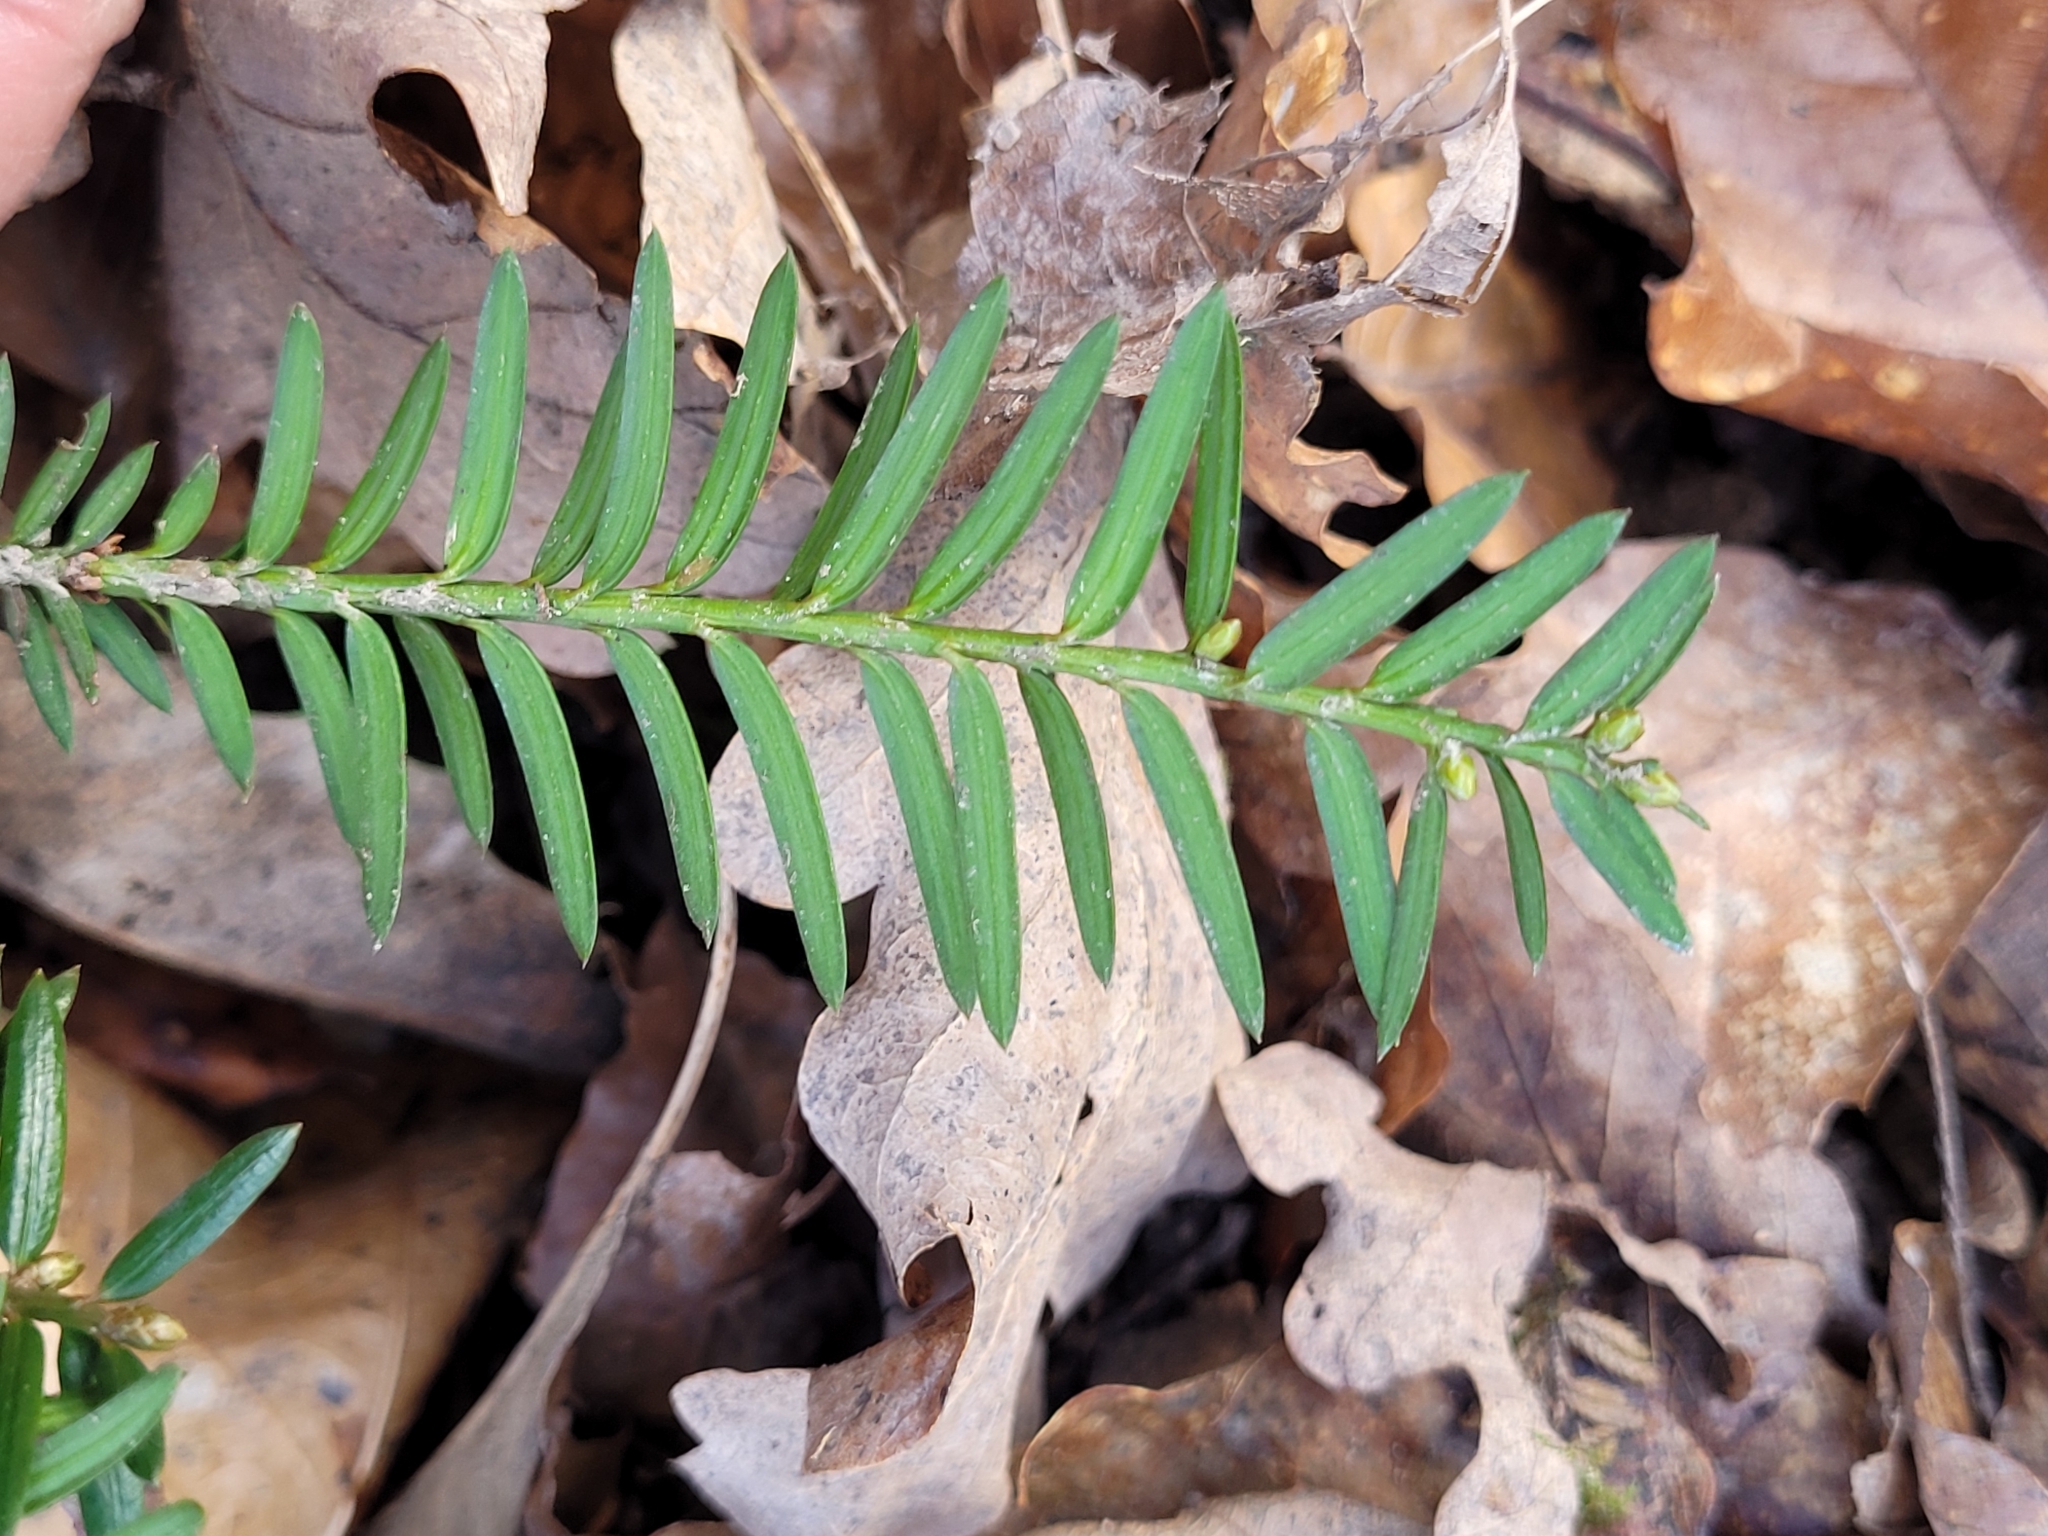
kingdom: Plantae
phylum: Tracheophyta
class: Pinopsida
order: Pinales
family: Taxaceae
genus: Taxus
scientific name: Taxus baccata
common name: Yew
